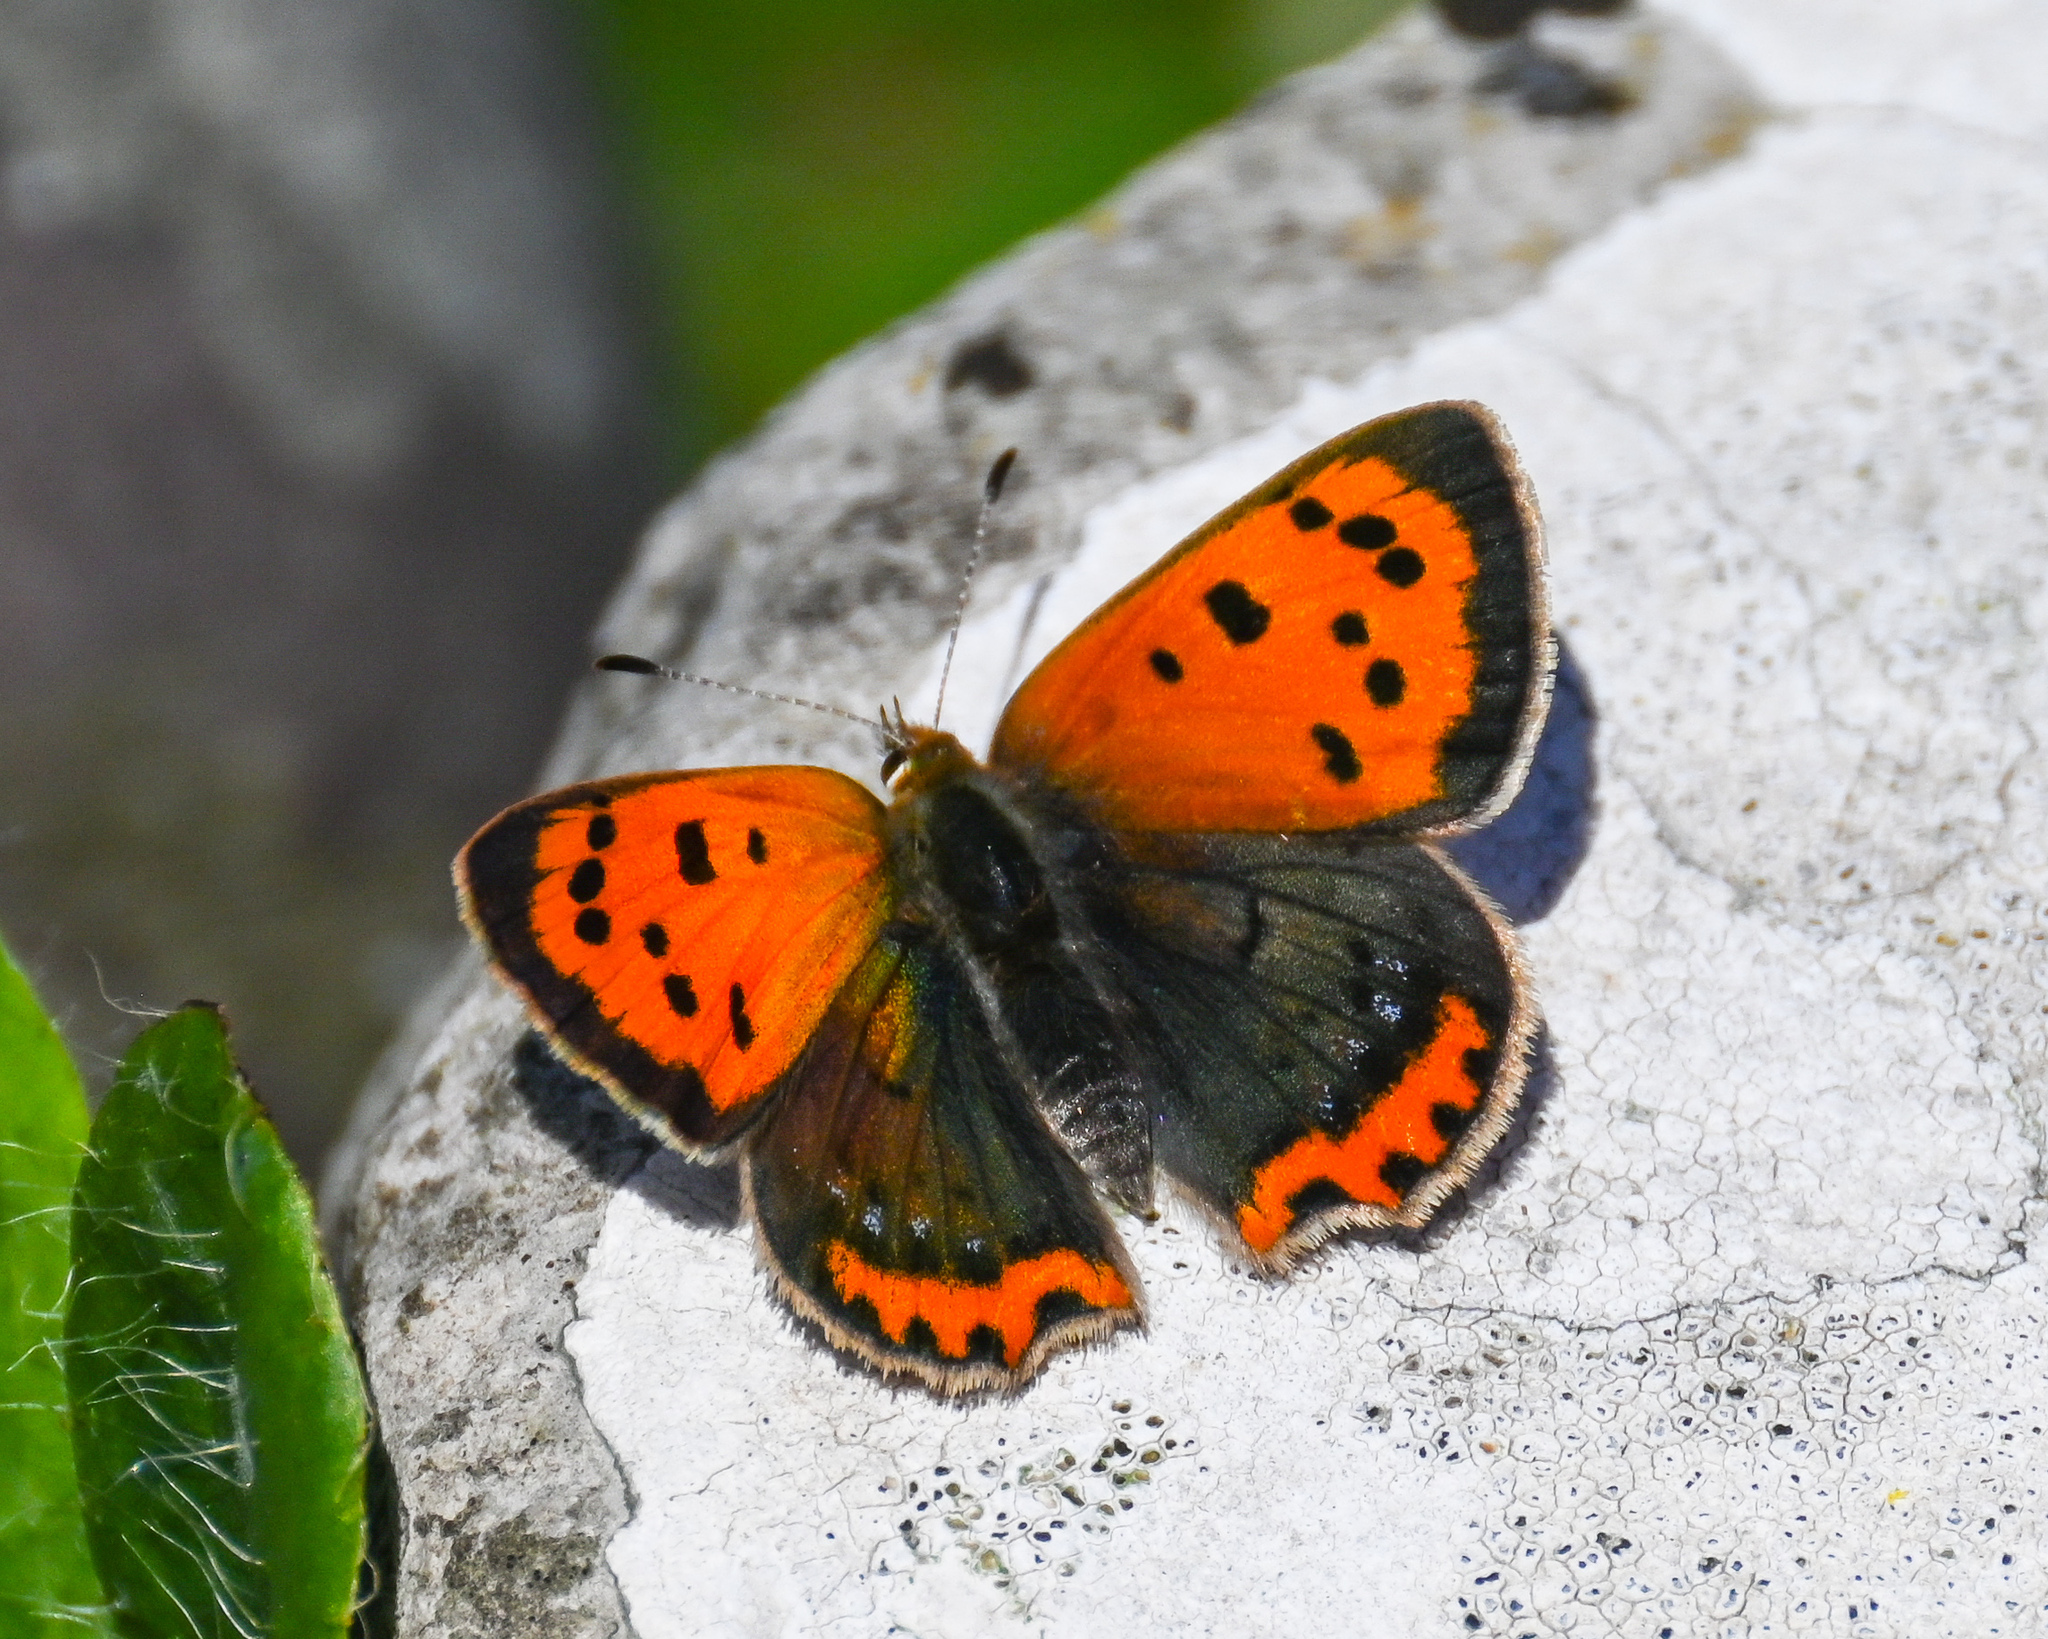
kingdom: Animalia
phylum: Arthropoda
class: Insecta
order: Lepidoptera
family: Lycaenidae
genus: Lycaena
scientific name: Lycaena phlaeas
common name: Small copper
